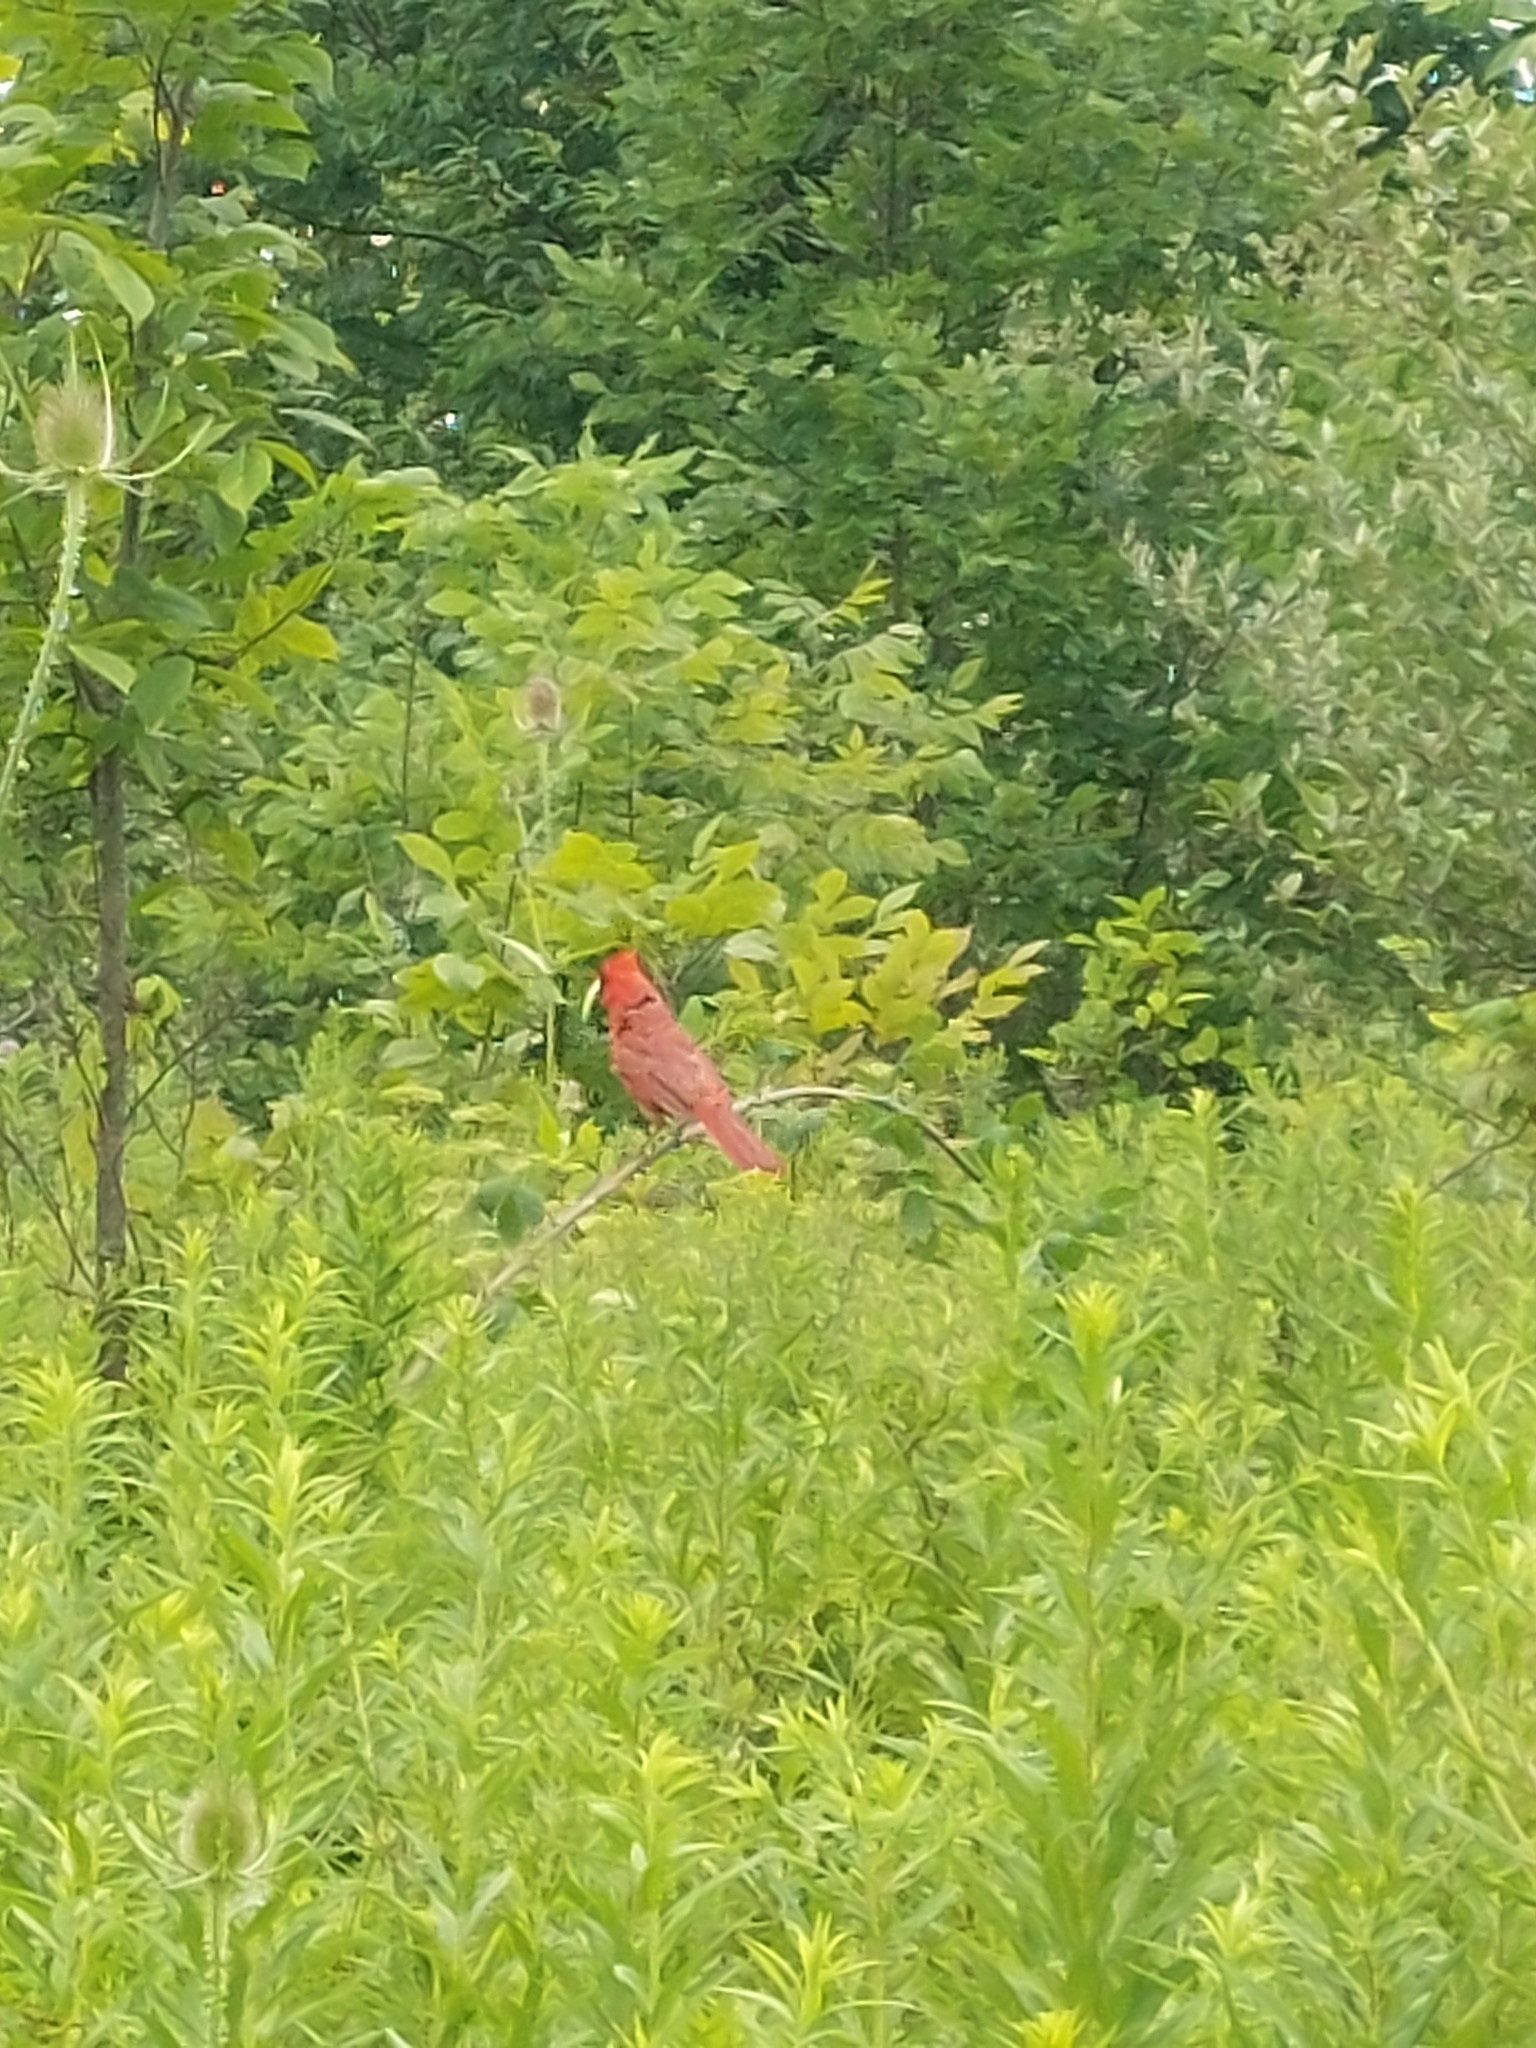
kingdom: Animalia
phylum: Chordata
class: Aves
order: Passeriformes
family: Cardinalidae
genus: Cardinalis
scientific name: Cardinalis cardinalis
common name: Northern cardinal
